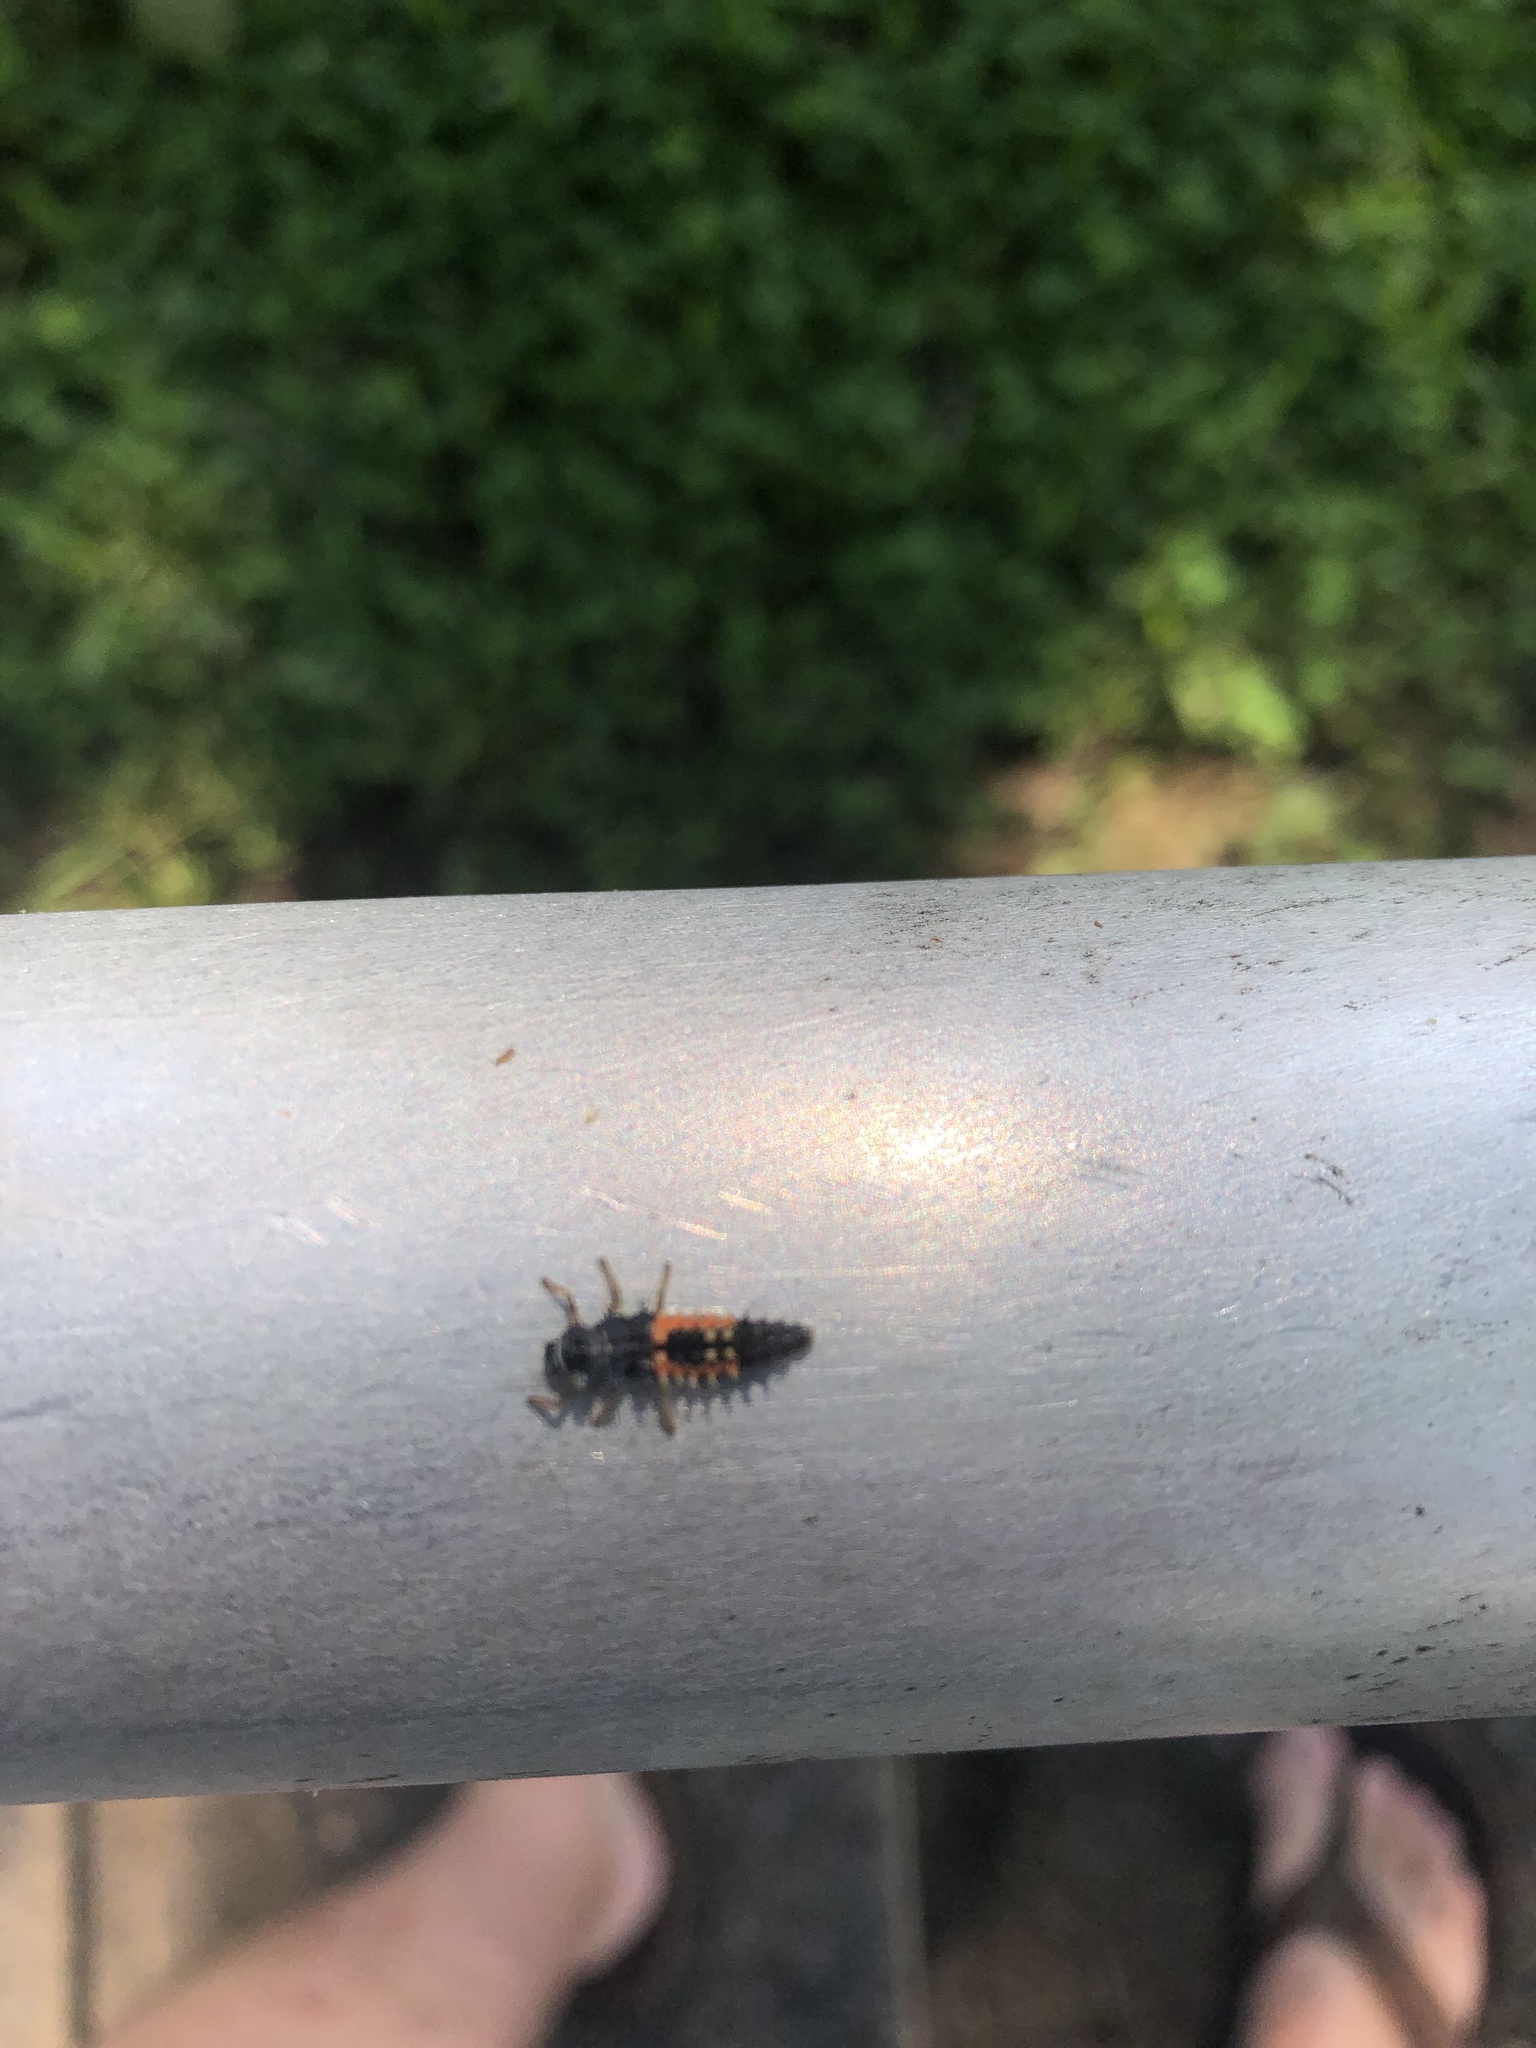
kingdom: Animalia
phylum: Arthropoda
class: Insecta
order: Coleoptera
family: Coccinellidae
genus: Harmonia
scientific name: Harmonia axyridis
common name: Harlequin ladybird
